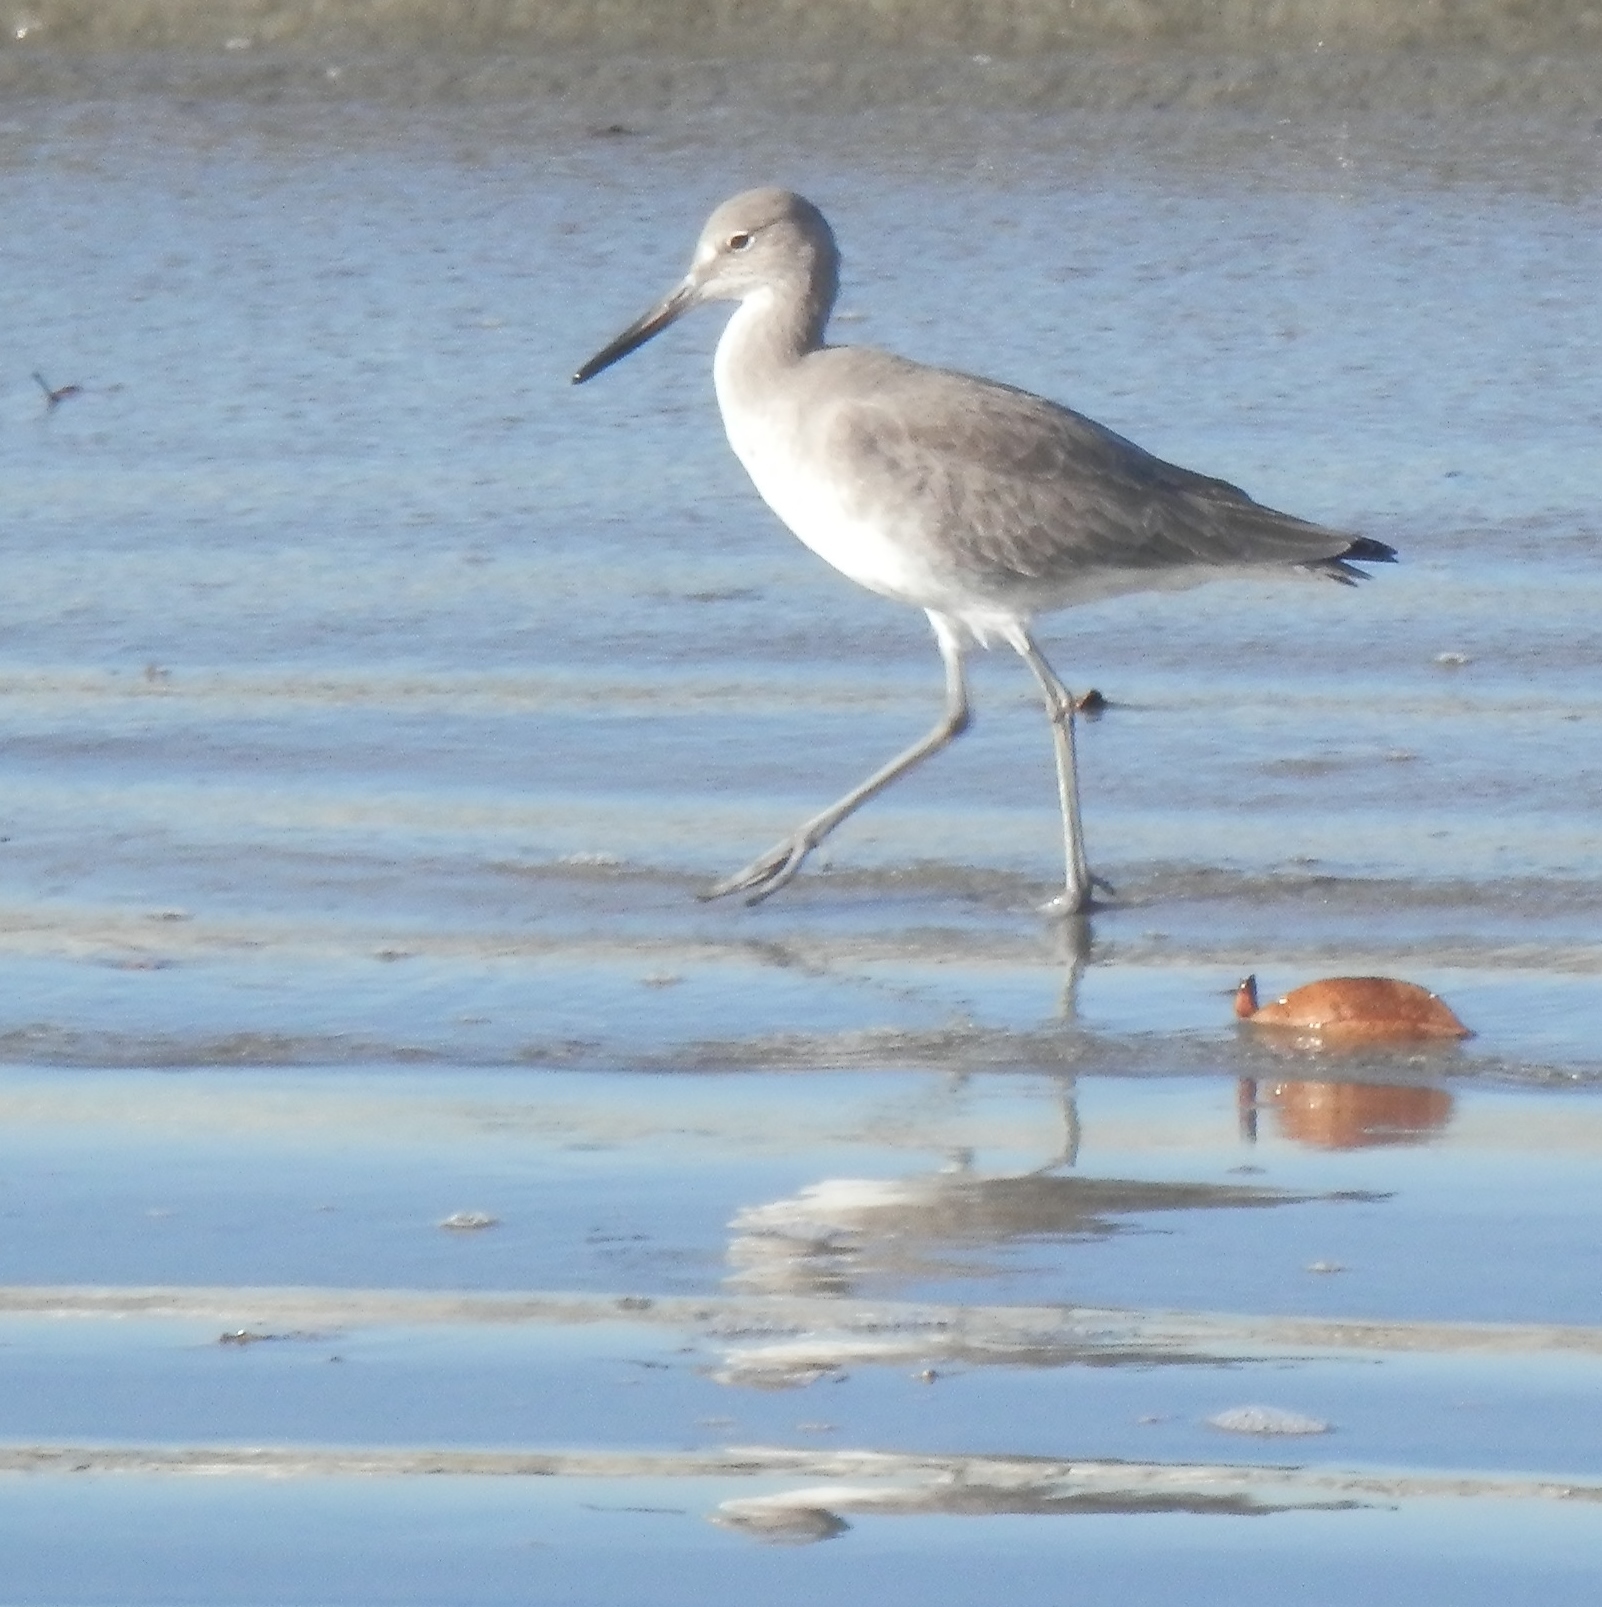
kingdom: Animalia
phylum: Chordata
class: Aves
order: Charadriiformes
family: Scolopacidae
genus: Tringa
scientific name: Tringa semipalmata
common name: Willet
